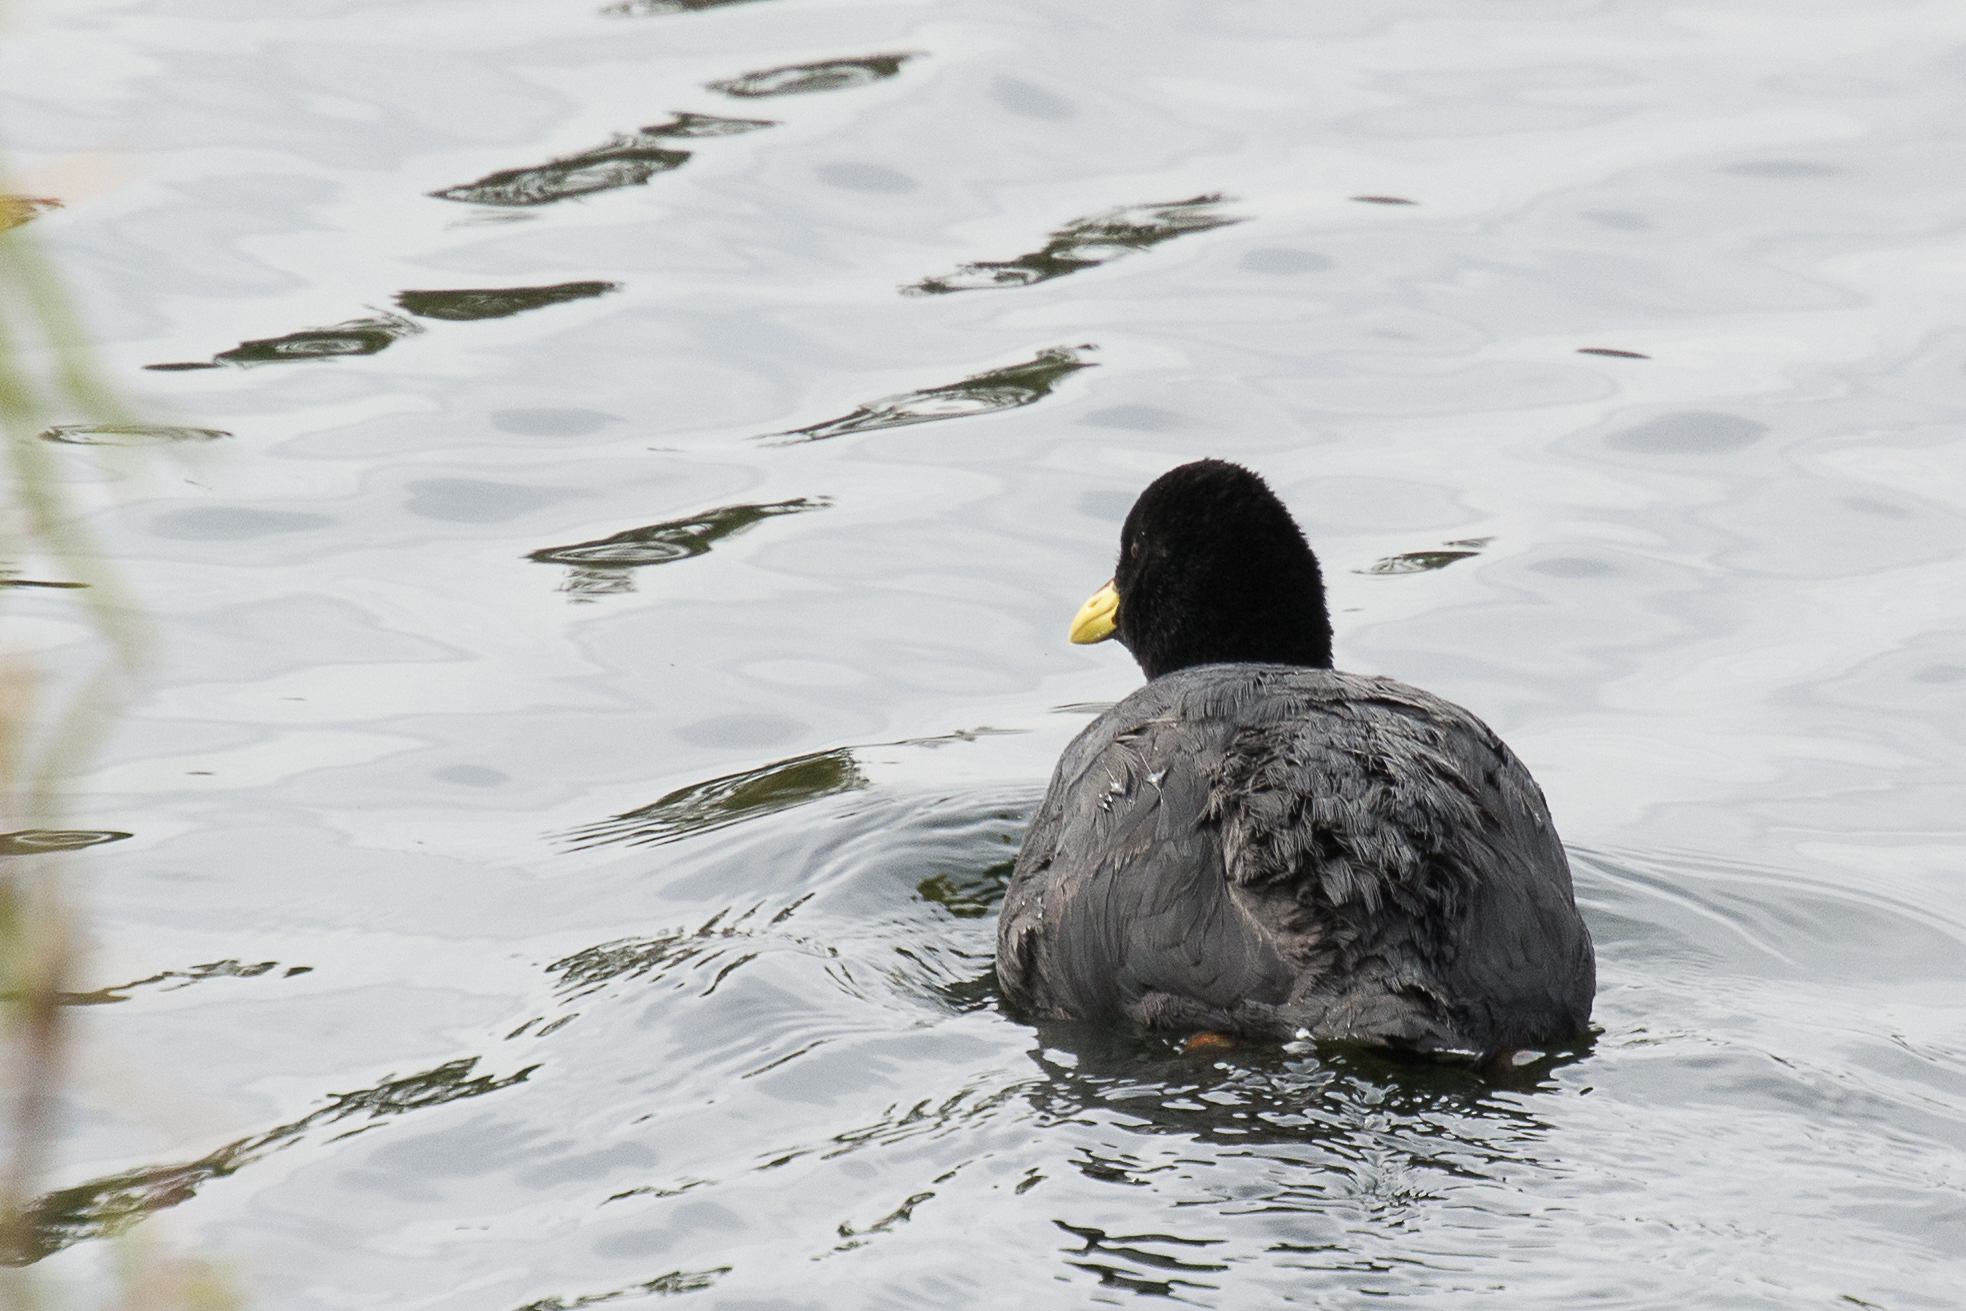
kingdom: Animalia
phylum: Chordata
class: Aves
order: Gruiformes
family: Rallidae
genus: Fulica
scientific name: Fulica armillata
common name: Red-gartered coot
